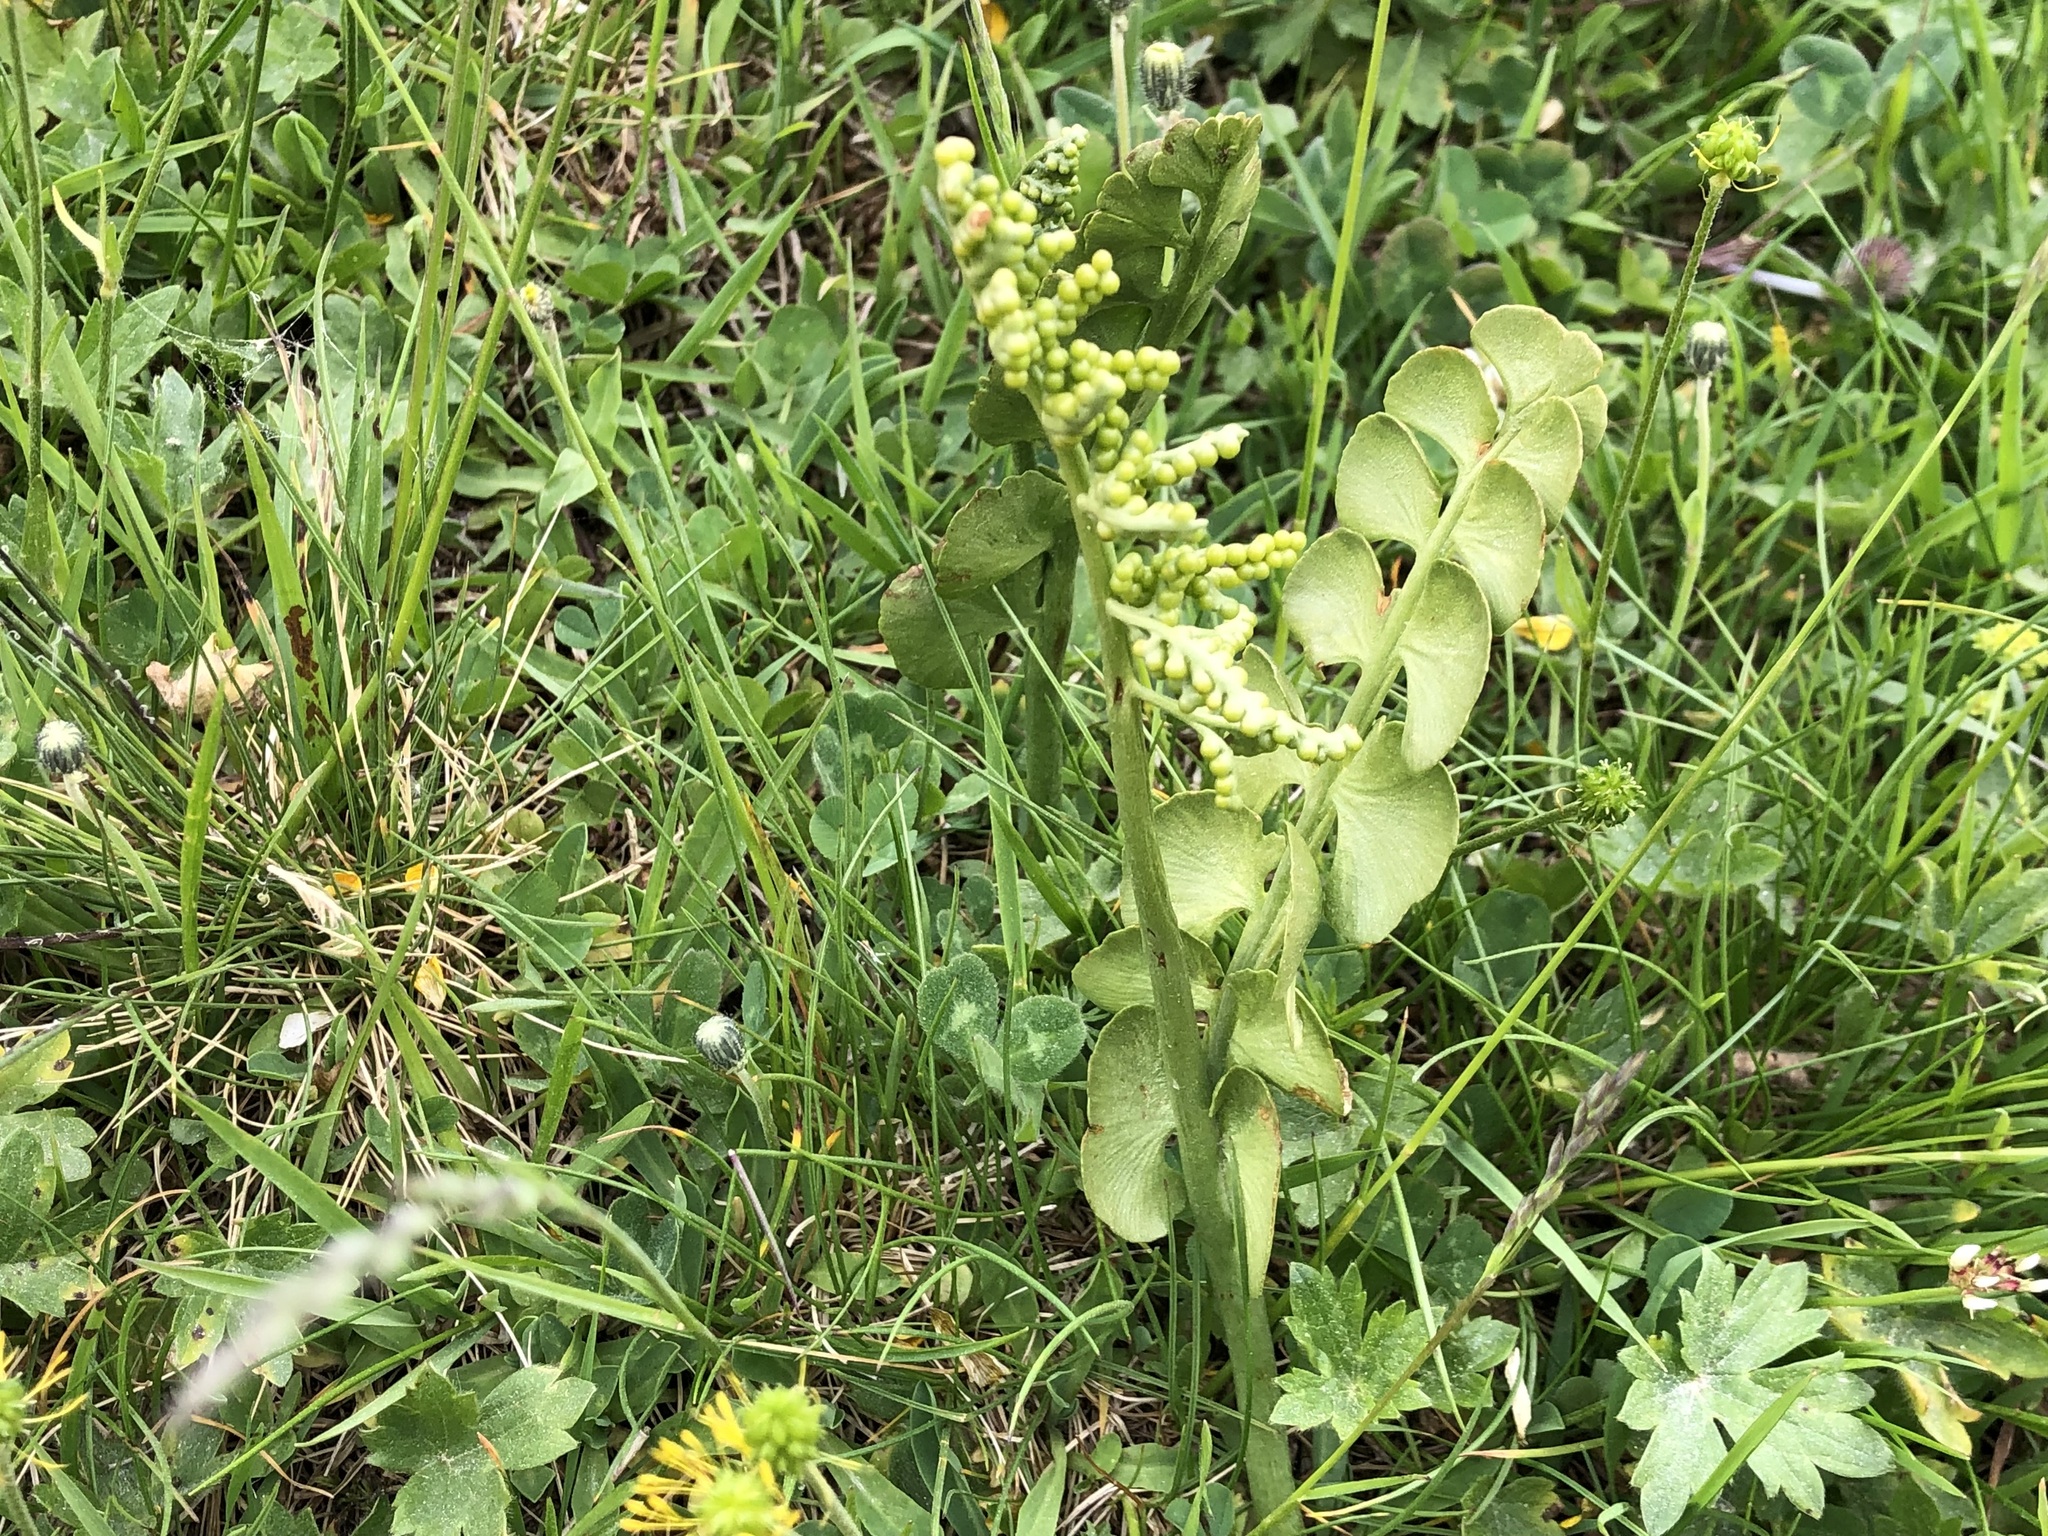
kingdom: Plantae
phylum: Tracheophyta
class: Polypodiopsida
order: Ophioglossales
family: Ophioglossaceae
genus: Botrychium
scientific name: Botrychium lunaria
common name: Moonwort
